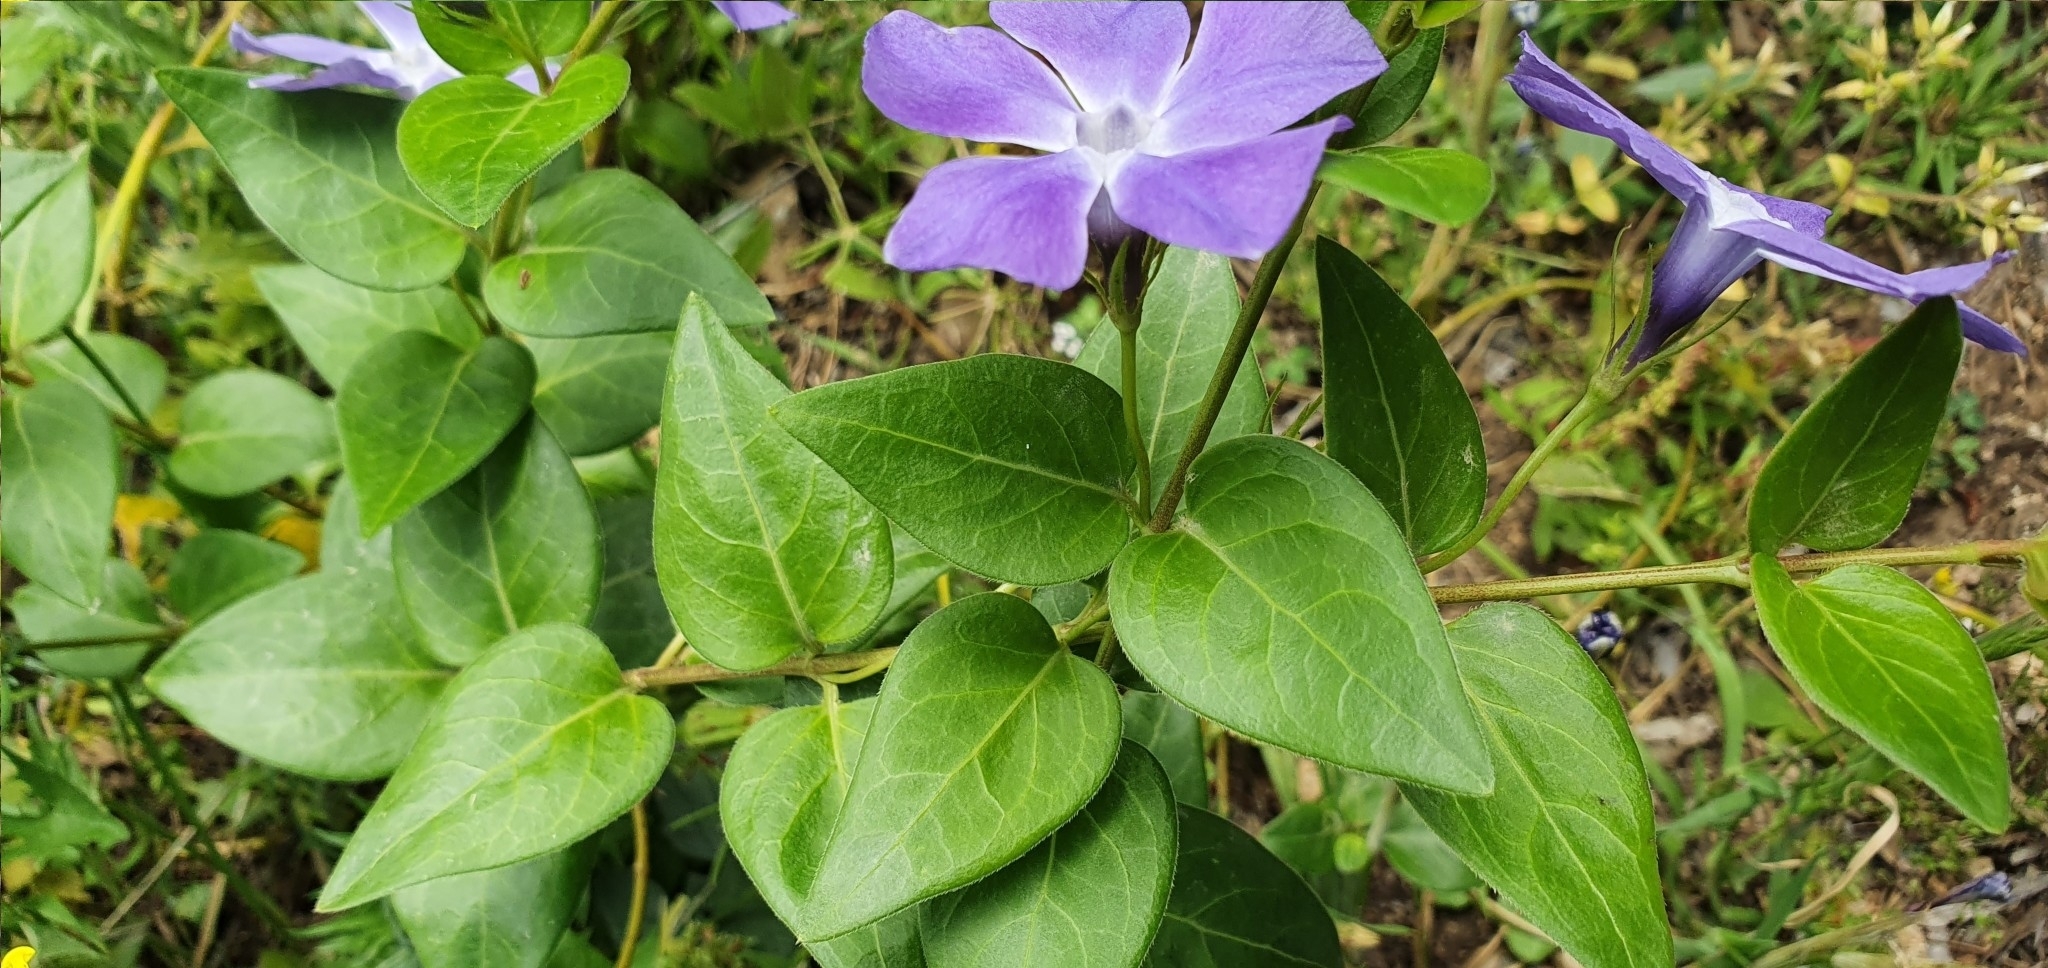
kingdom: Plantae
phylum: Tracheophyta
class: Magnoliopsida
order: Gentianales
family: Apocynaceae
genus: Vinca
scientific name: Vinca major
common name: Greater periwinkle
